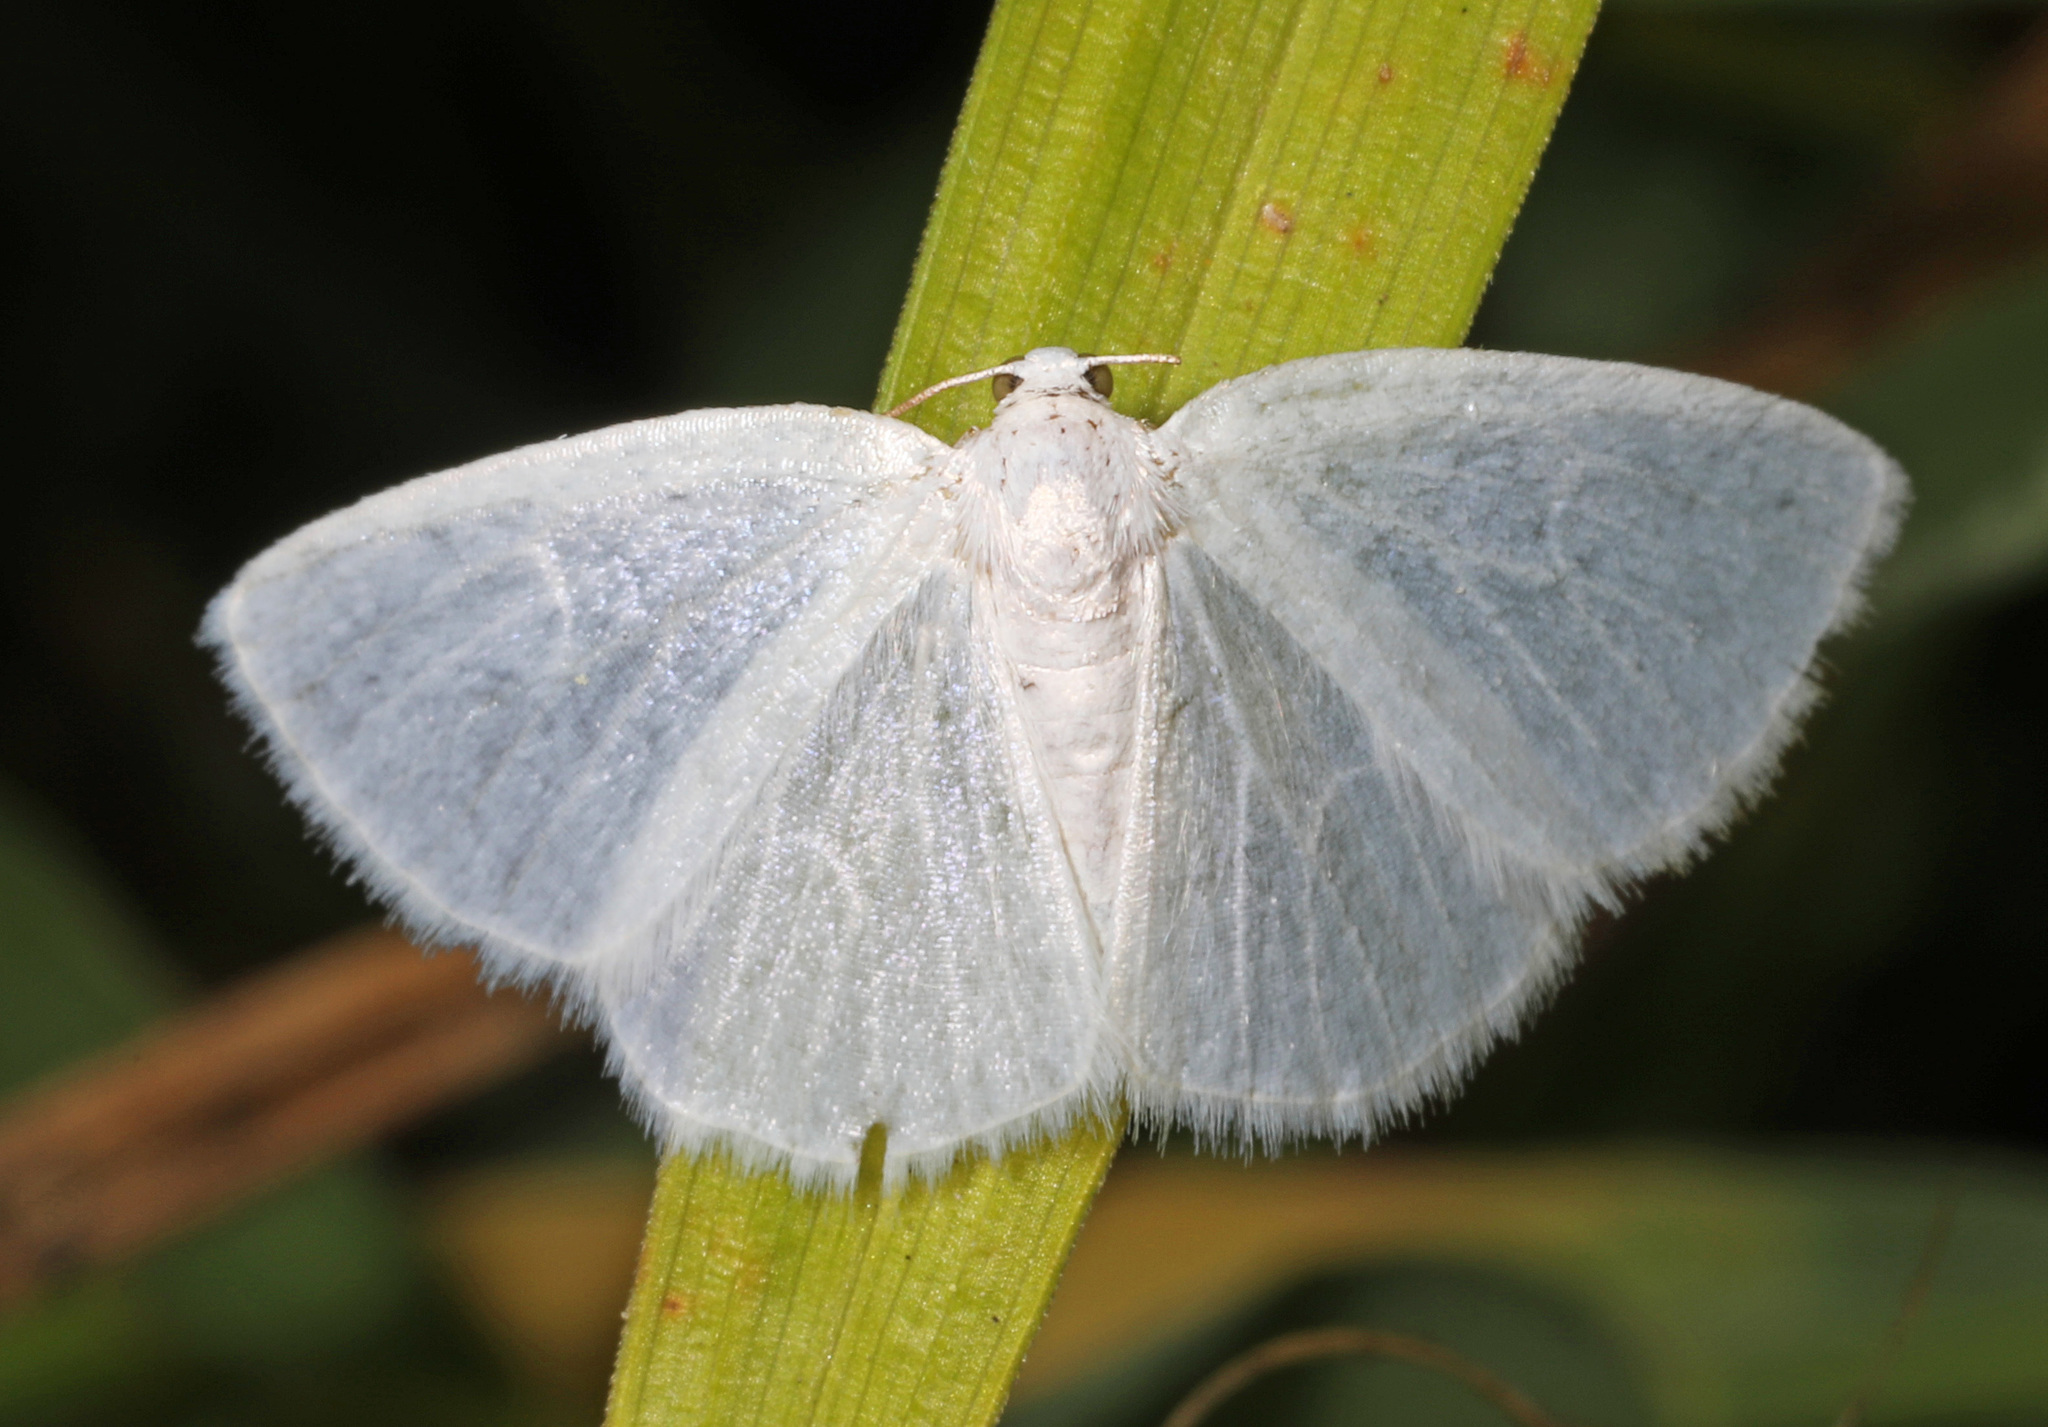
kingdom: Animalia
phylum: Arthropoda
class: Insecta
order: Lepidoptera
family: Geometridae
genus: Lomographa
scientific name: Lomographa vestaliata
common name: White spring moth
